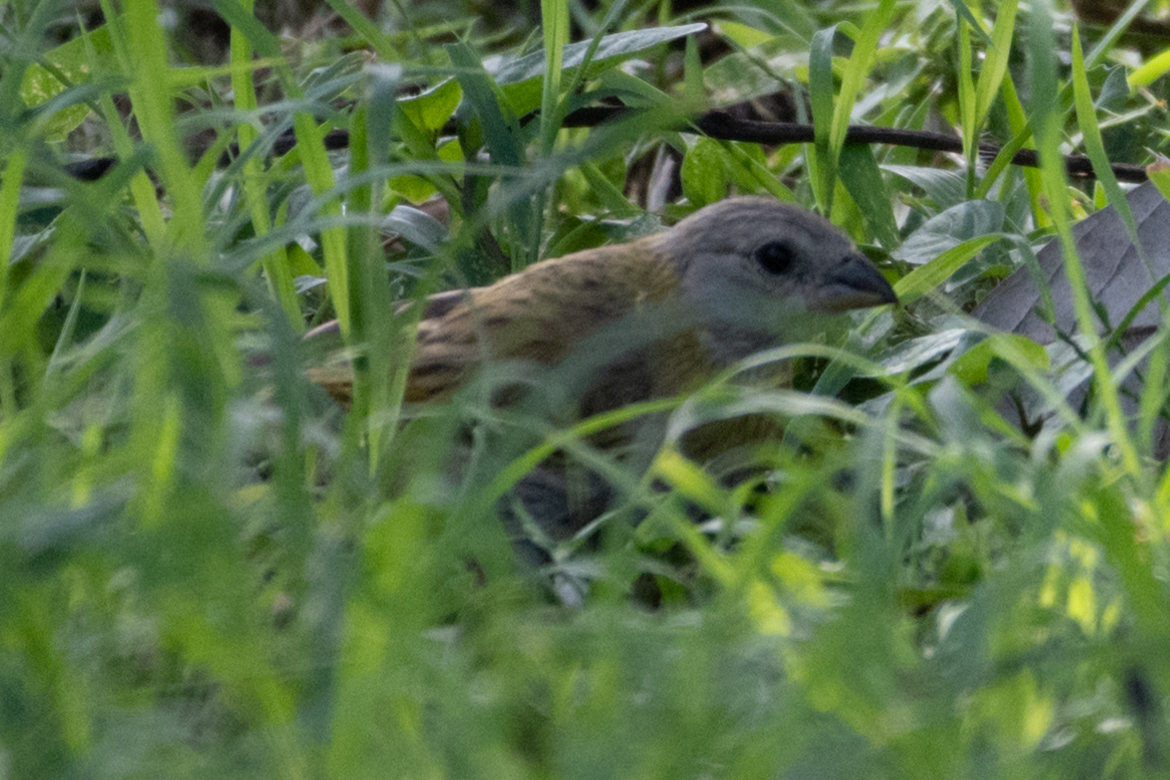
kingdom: Animalia
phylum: Chordata
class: Aves
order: Passeriformes
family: Thraupidae
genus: Sicalis
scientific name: Sicalis flaveola
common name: Saffron finch
